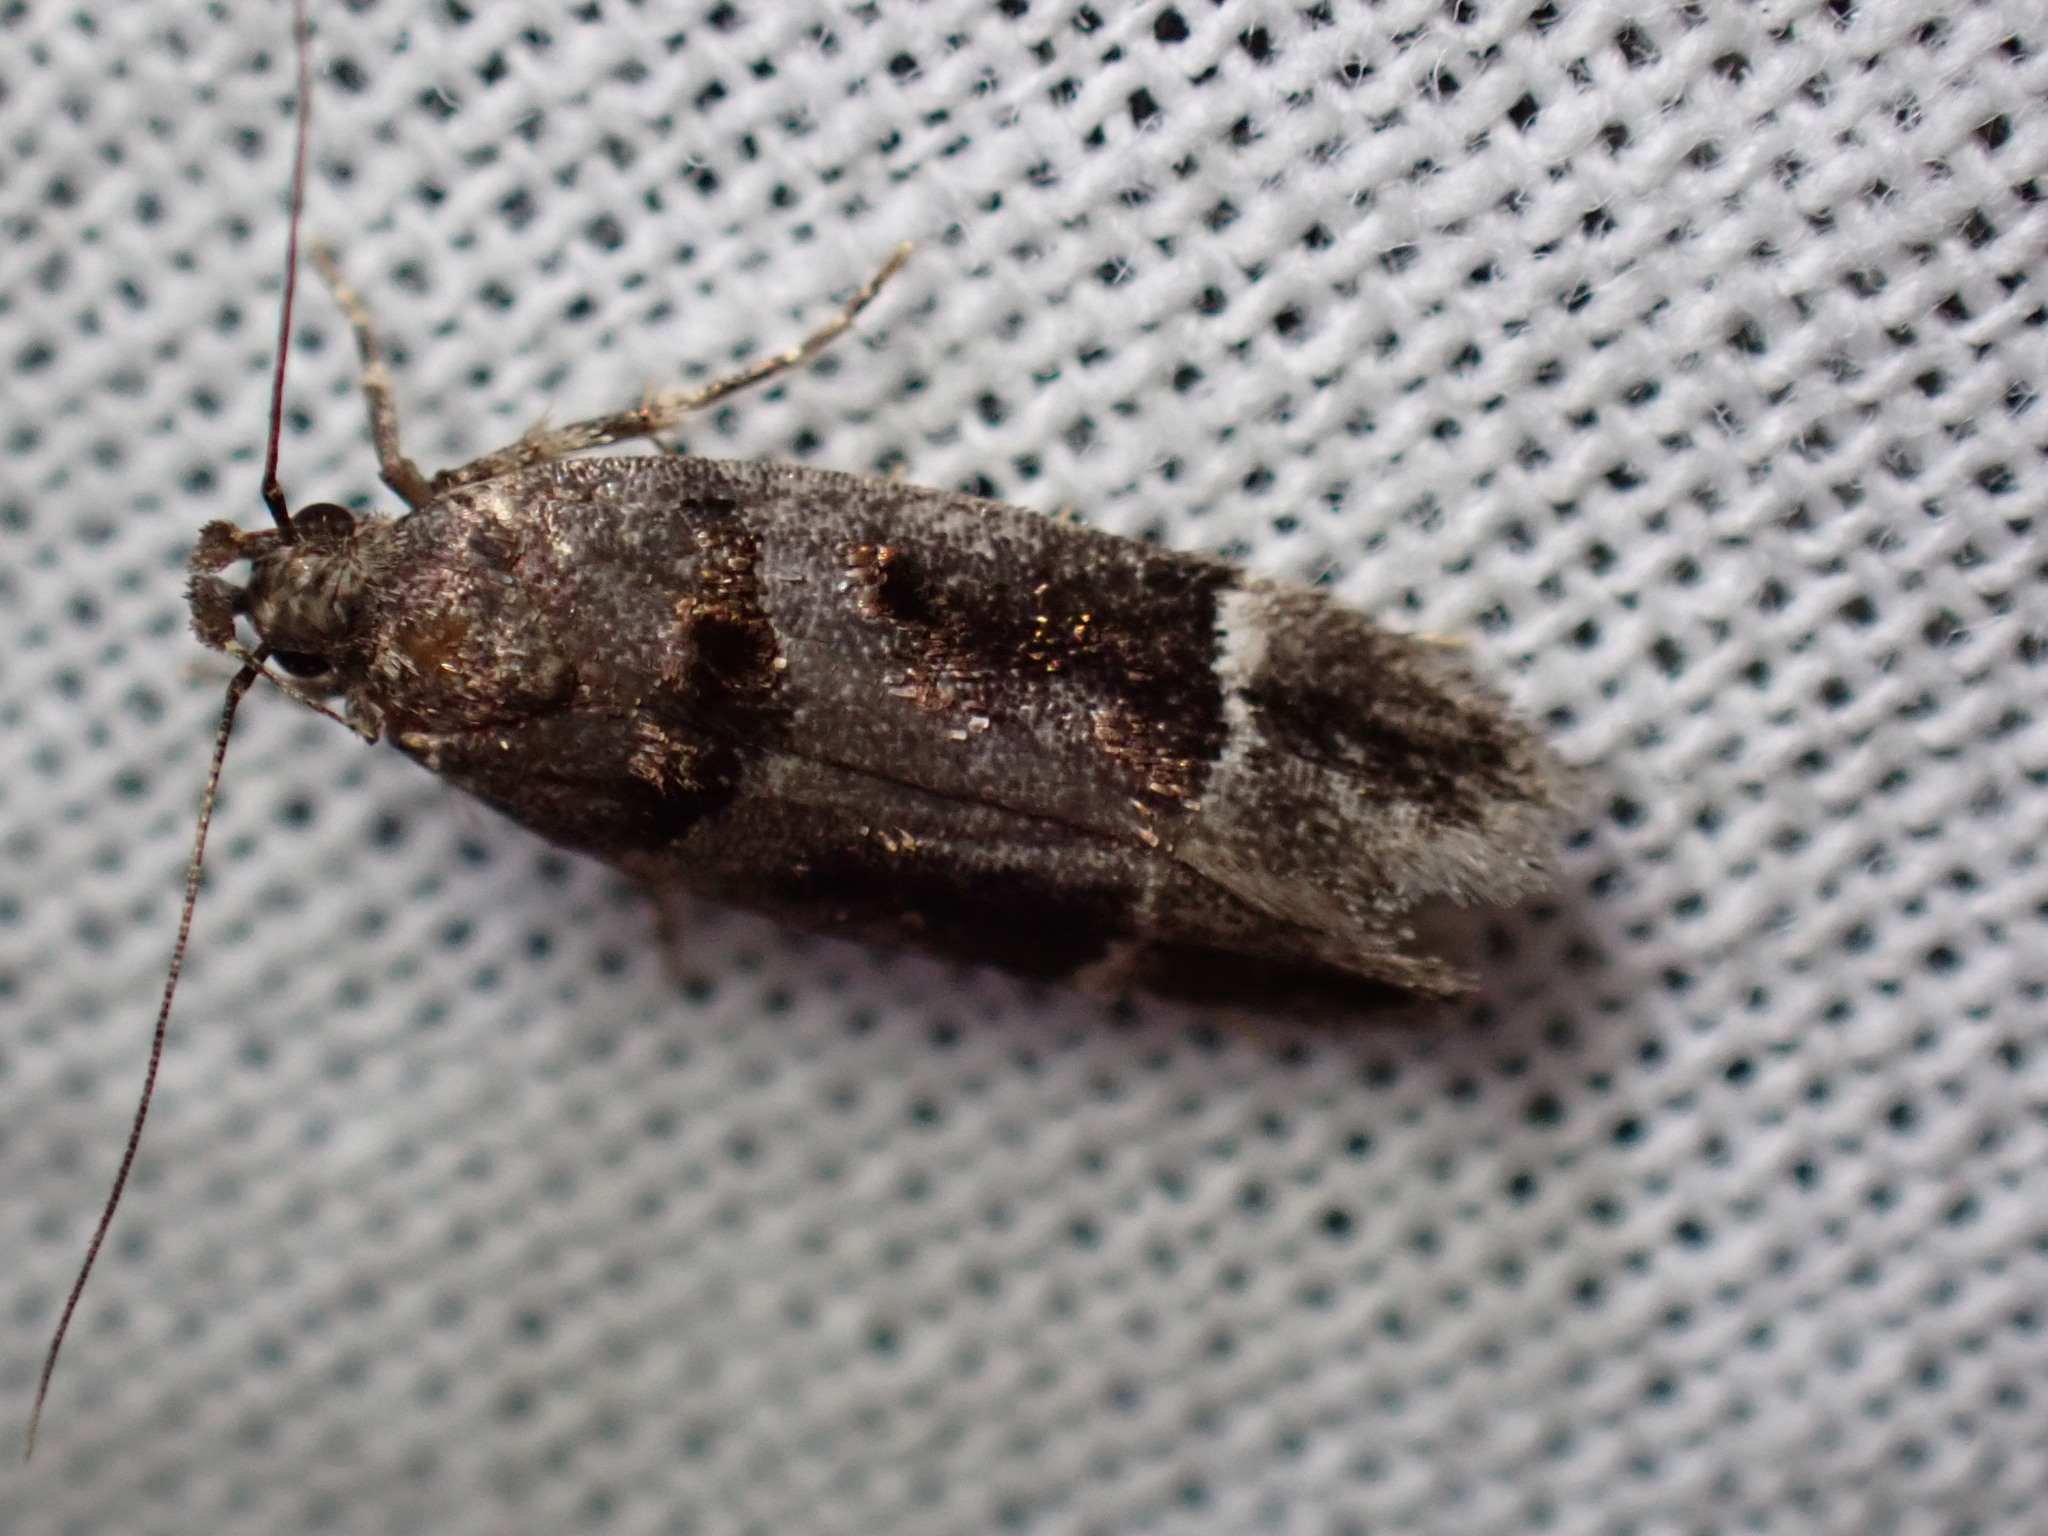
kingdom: Animalia
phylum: Arthropoda
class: Insecta
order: Lepidoptera
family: Gelechiidae
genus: Pseudochelaria
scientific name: Pseudochelaria manzanitae
